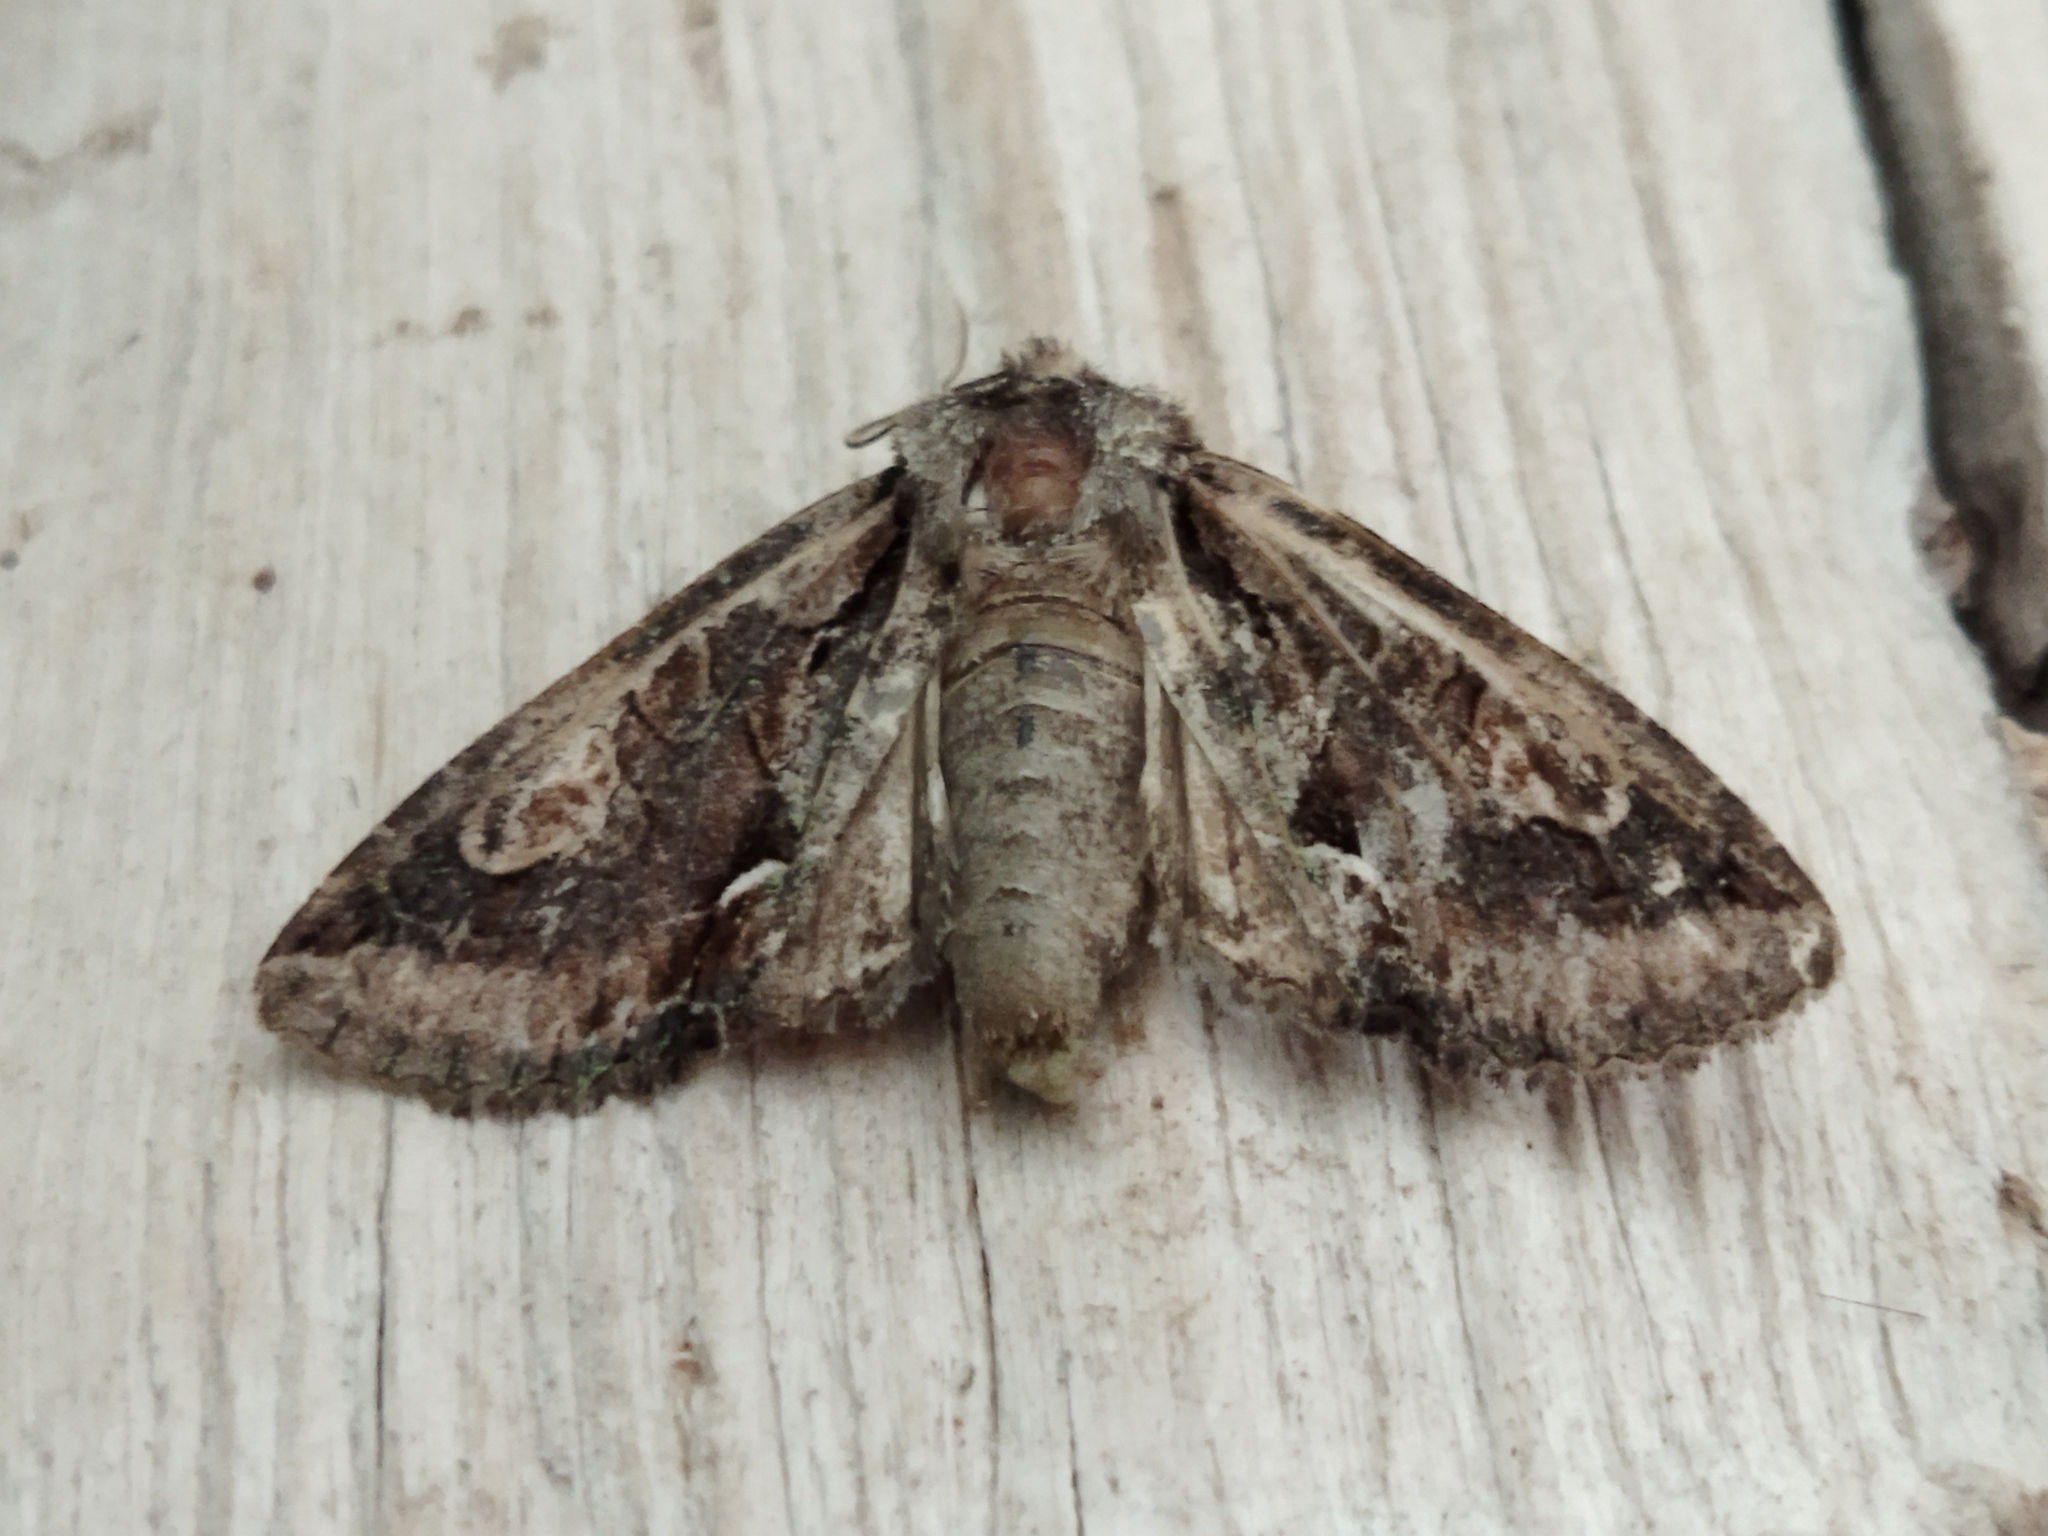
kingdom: Animalia
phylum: Arthropoda
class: Insecta
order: Lepidoptera
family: Noctuidae
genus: Allophyes
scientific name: Allophyes oxyacanthae
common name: Green-brindled crescent
